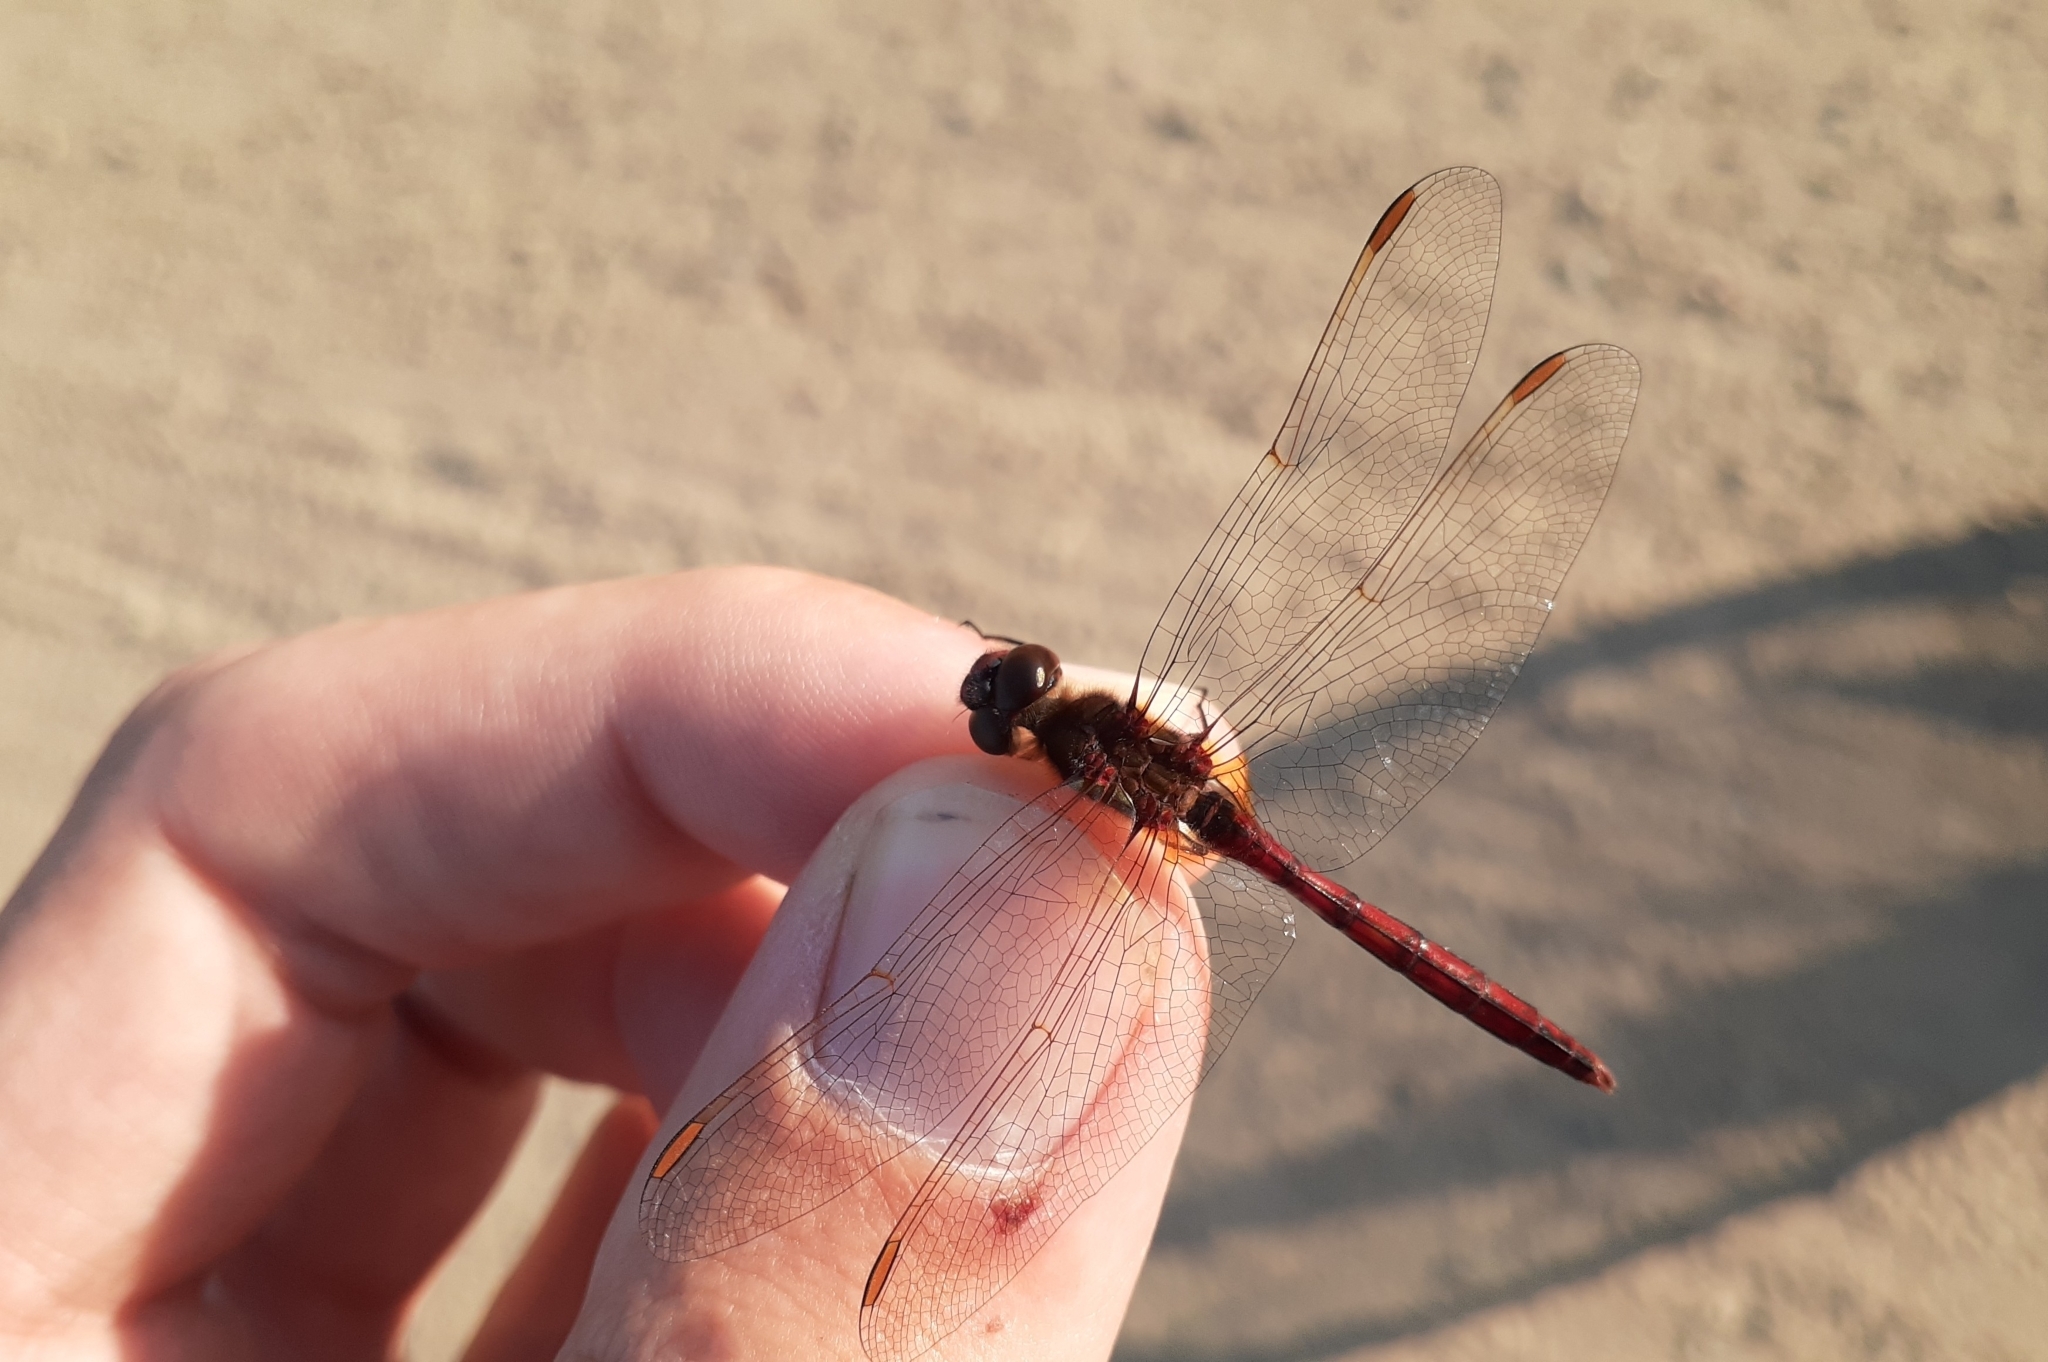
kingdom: Animalia
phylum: Arthropoda
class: Insecta
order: Odonata
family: Libellulidae
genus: Sympetrum
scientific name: Sympetrum costiferum
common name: Saffron-winged meadowhawk
